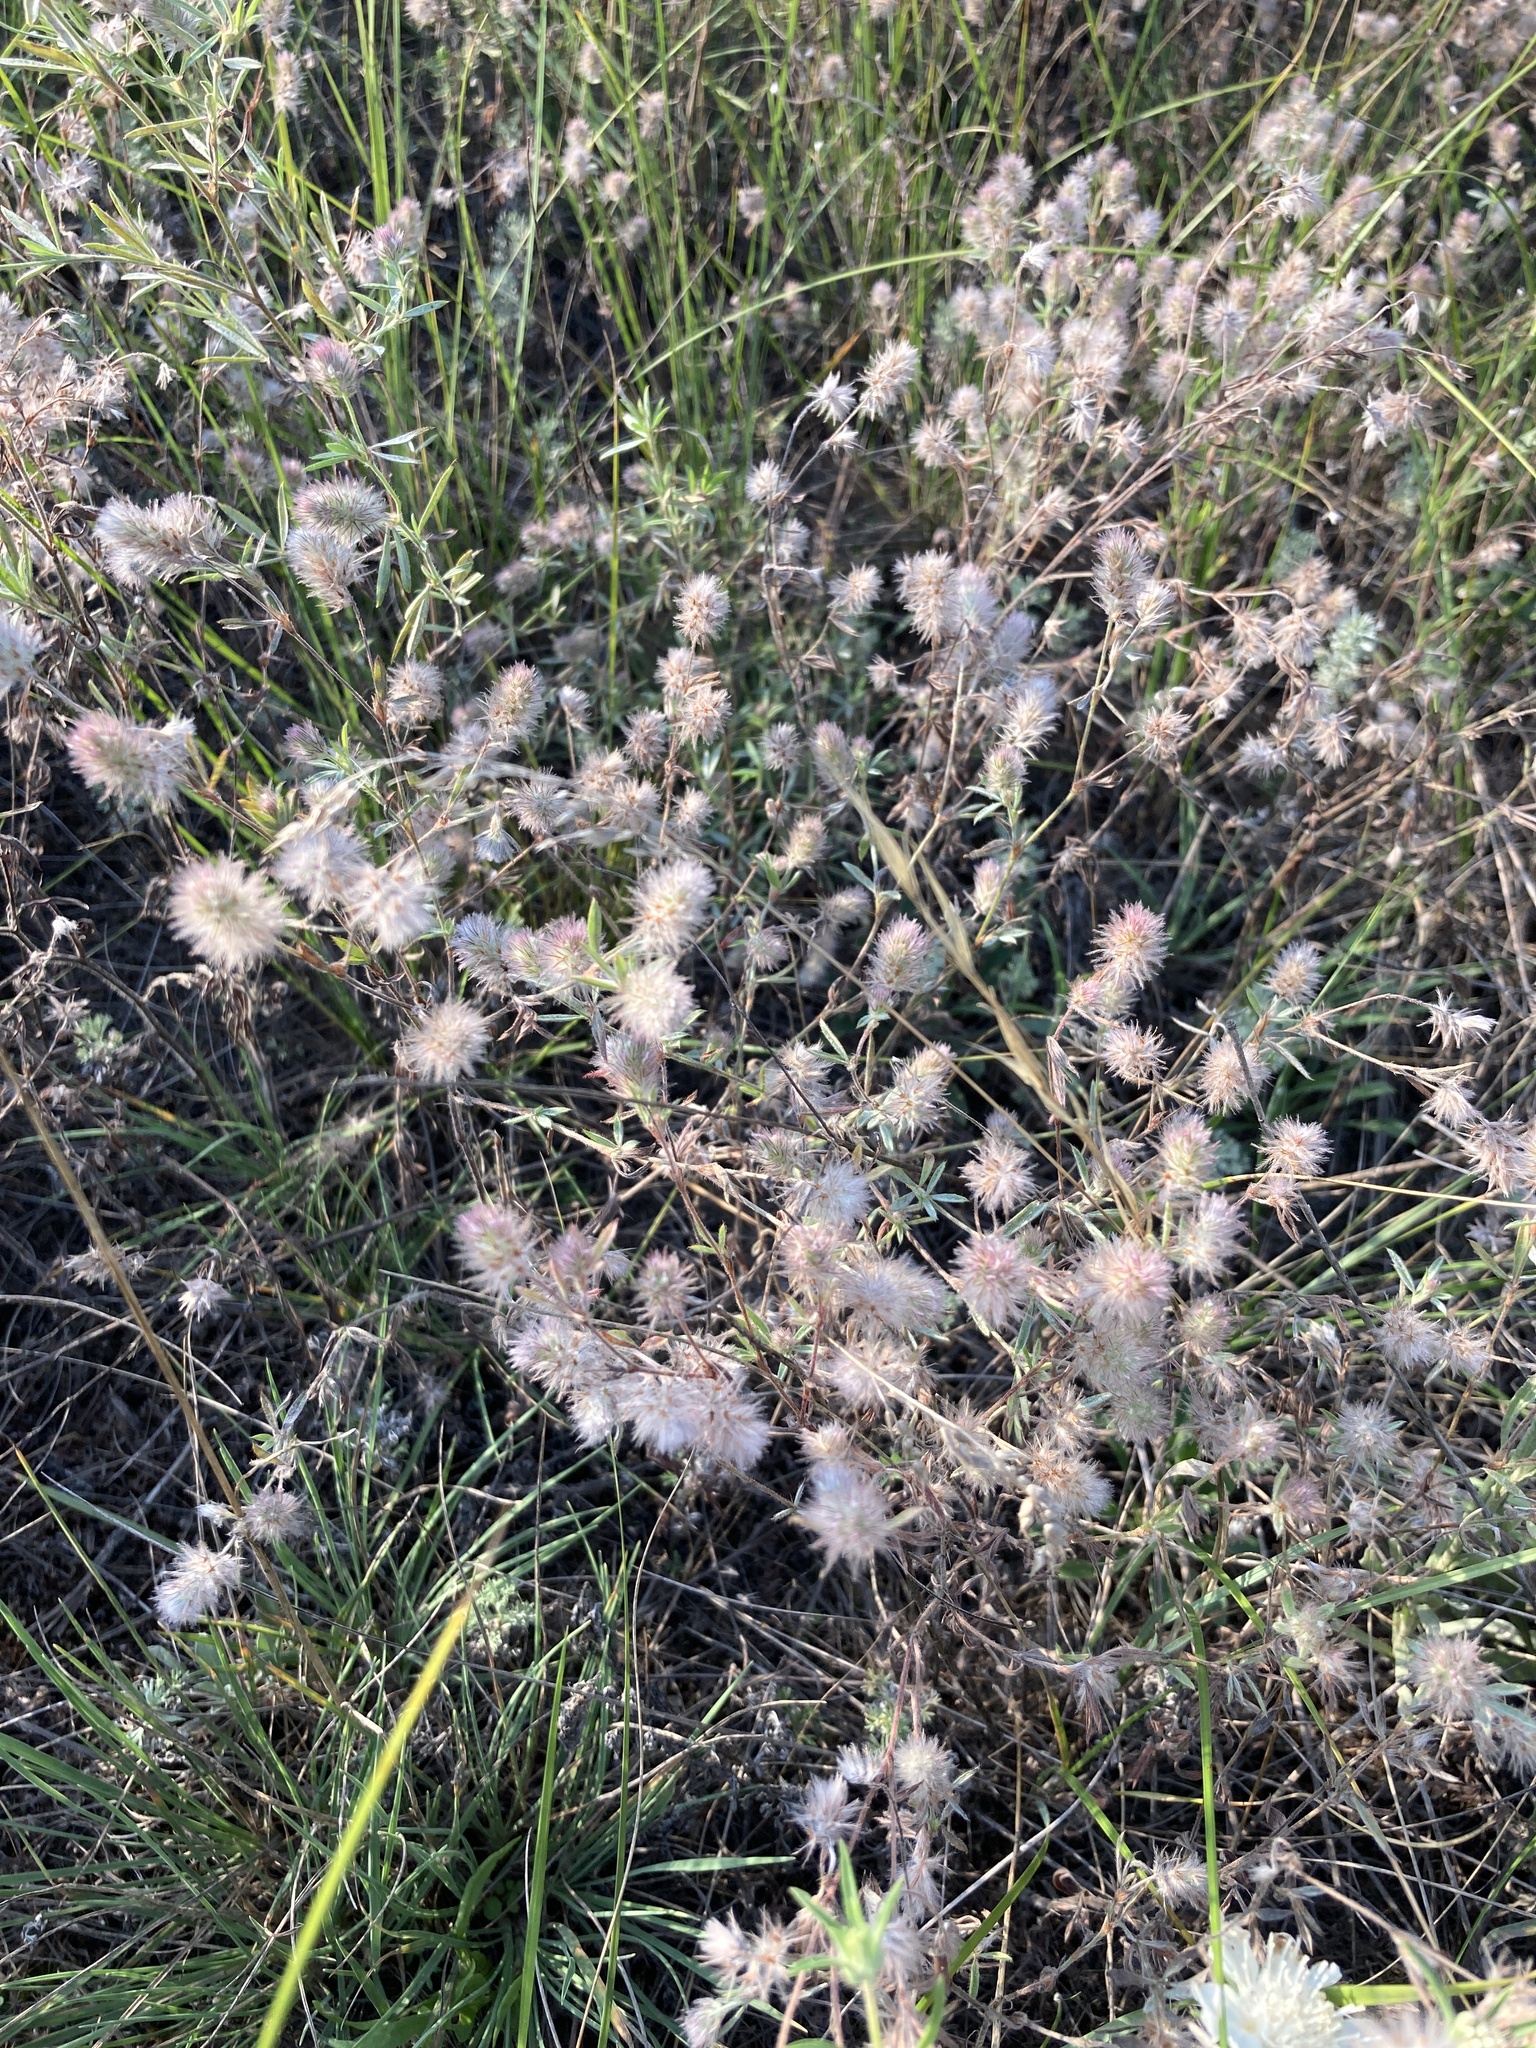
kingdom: Plantae
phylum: Tracheophyta
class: Magnoliopsida
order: Fabales
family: Fabaceae
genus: Trifolium
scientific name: Trifolium arvense
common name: Hare's-foot clover
